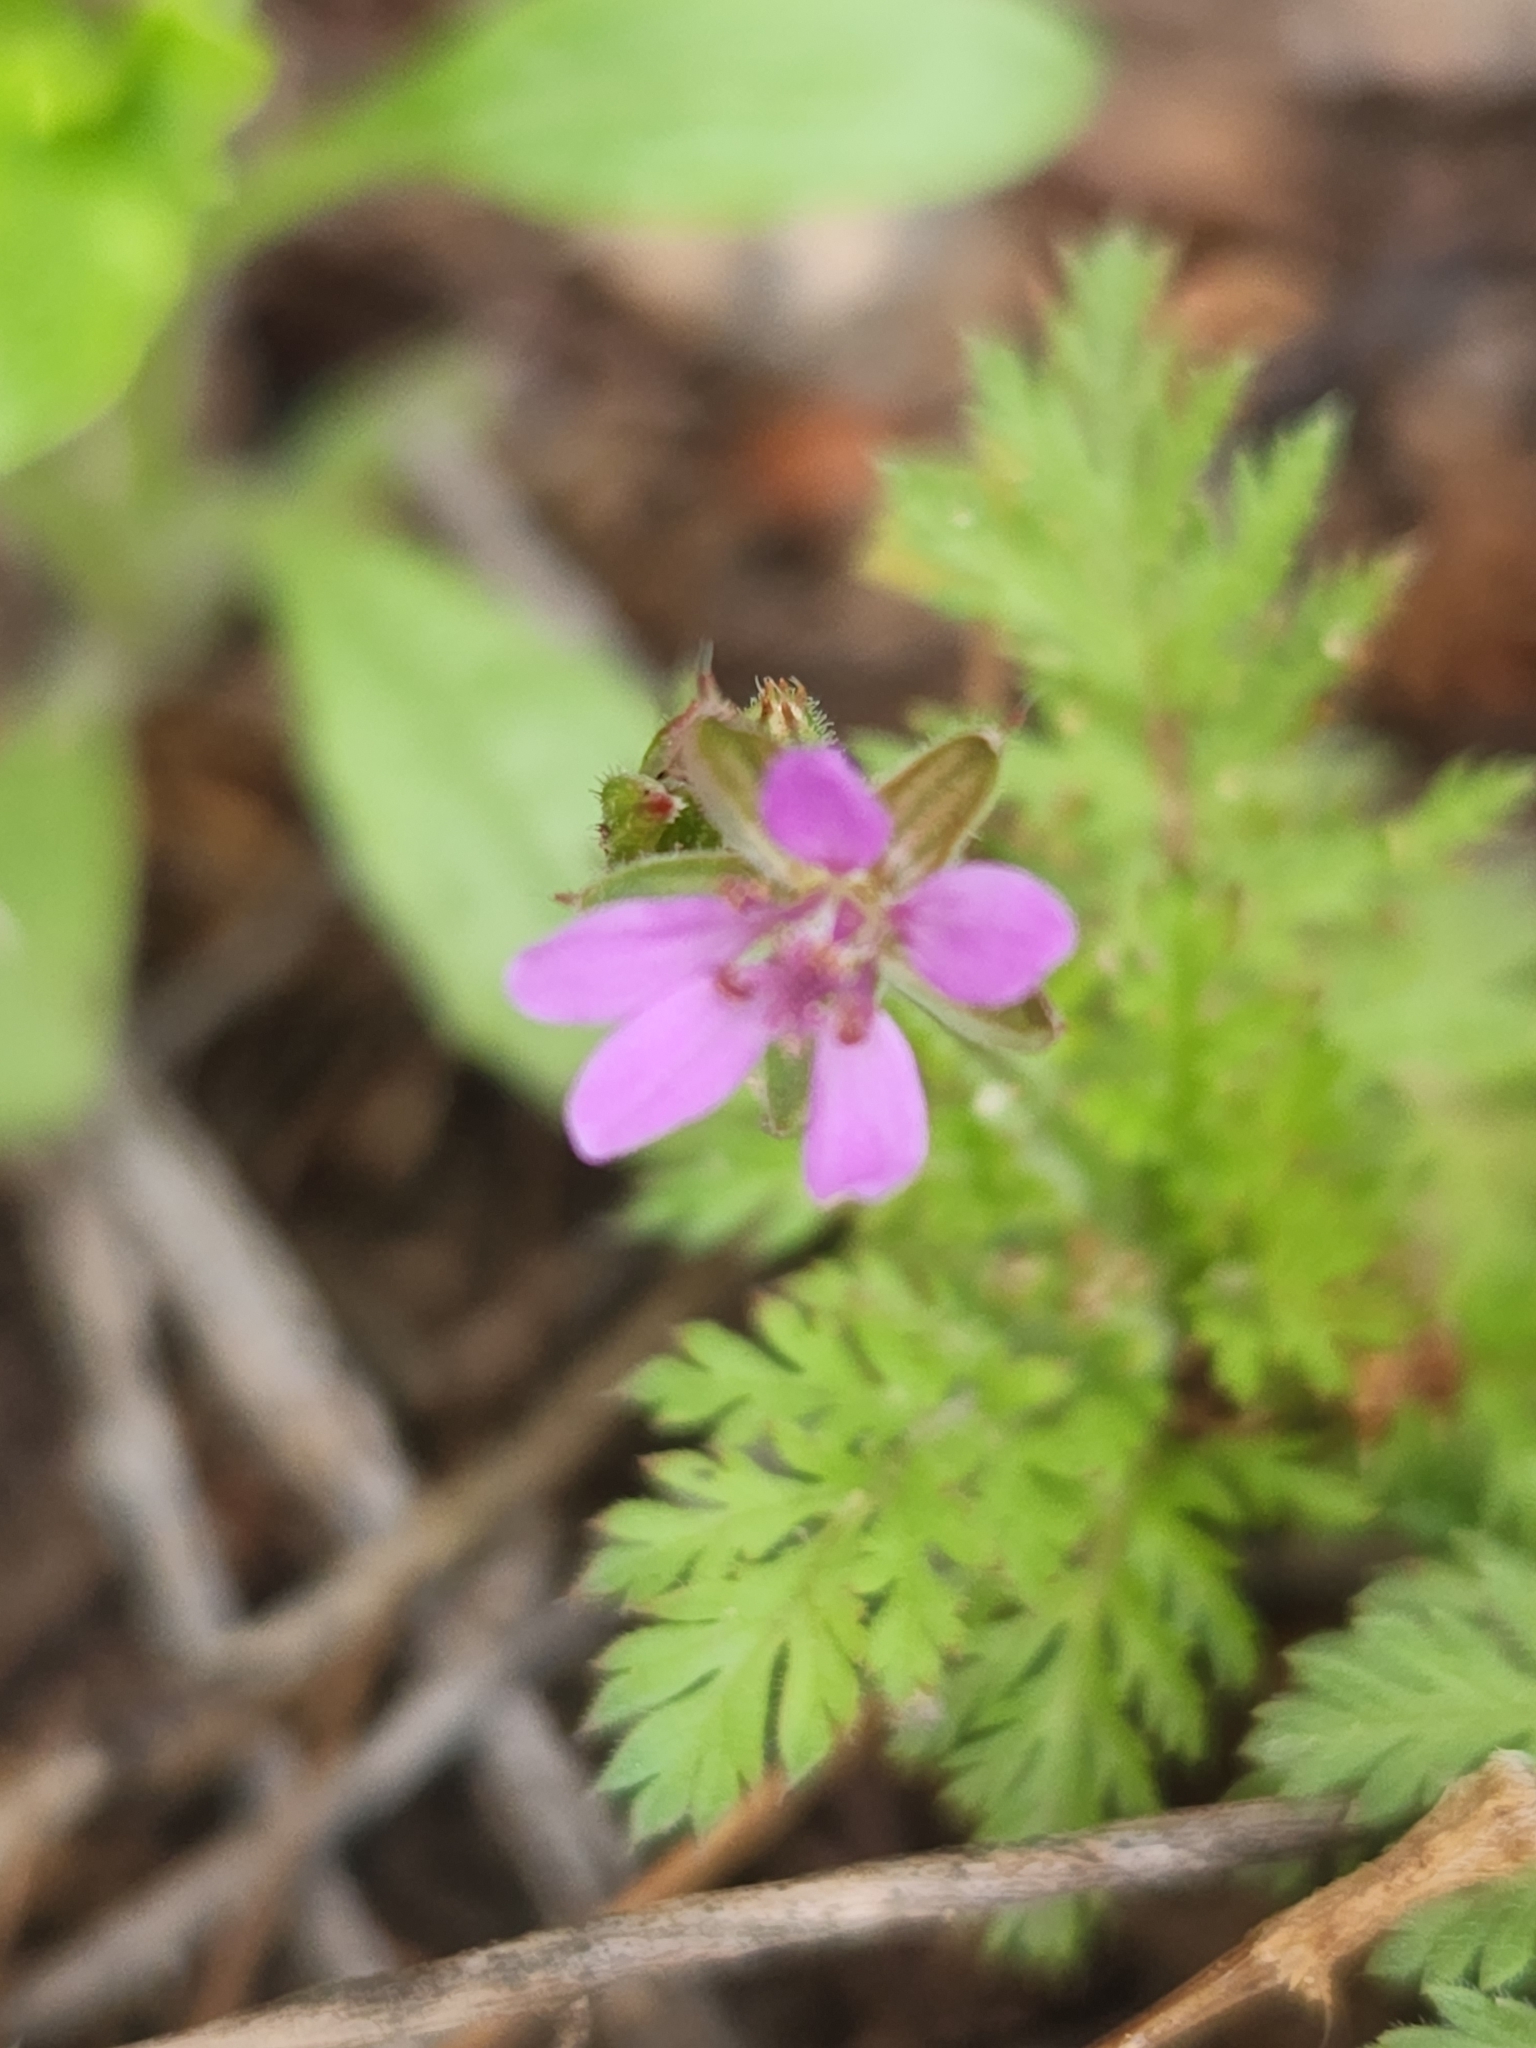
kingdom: Plantae
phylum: Tracheophyta
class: Magnoliopsida
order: Geraniales
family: Geraniaceae
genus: Erodium
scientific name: Erodium cicutarium
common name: Common stork's-bill
